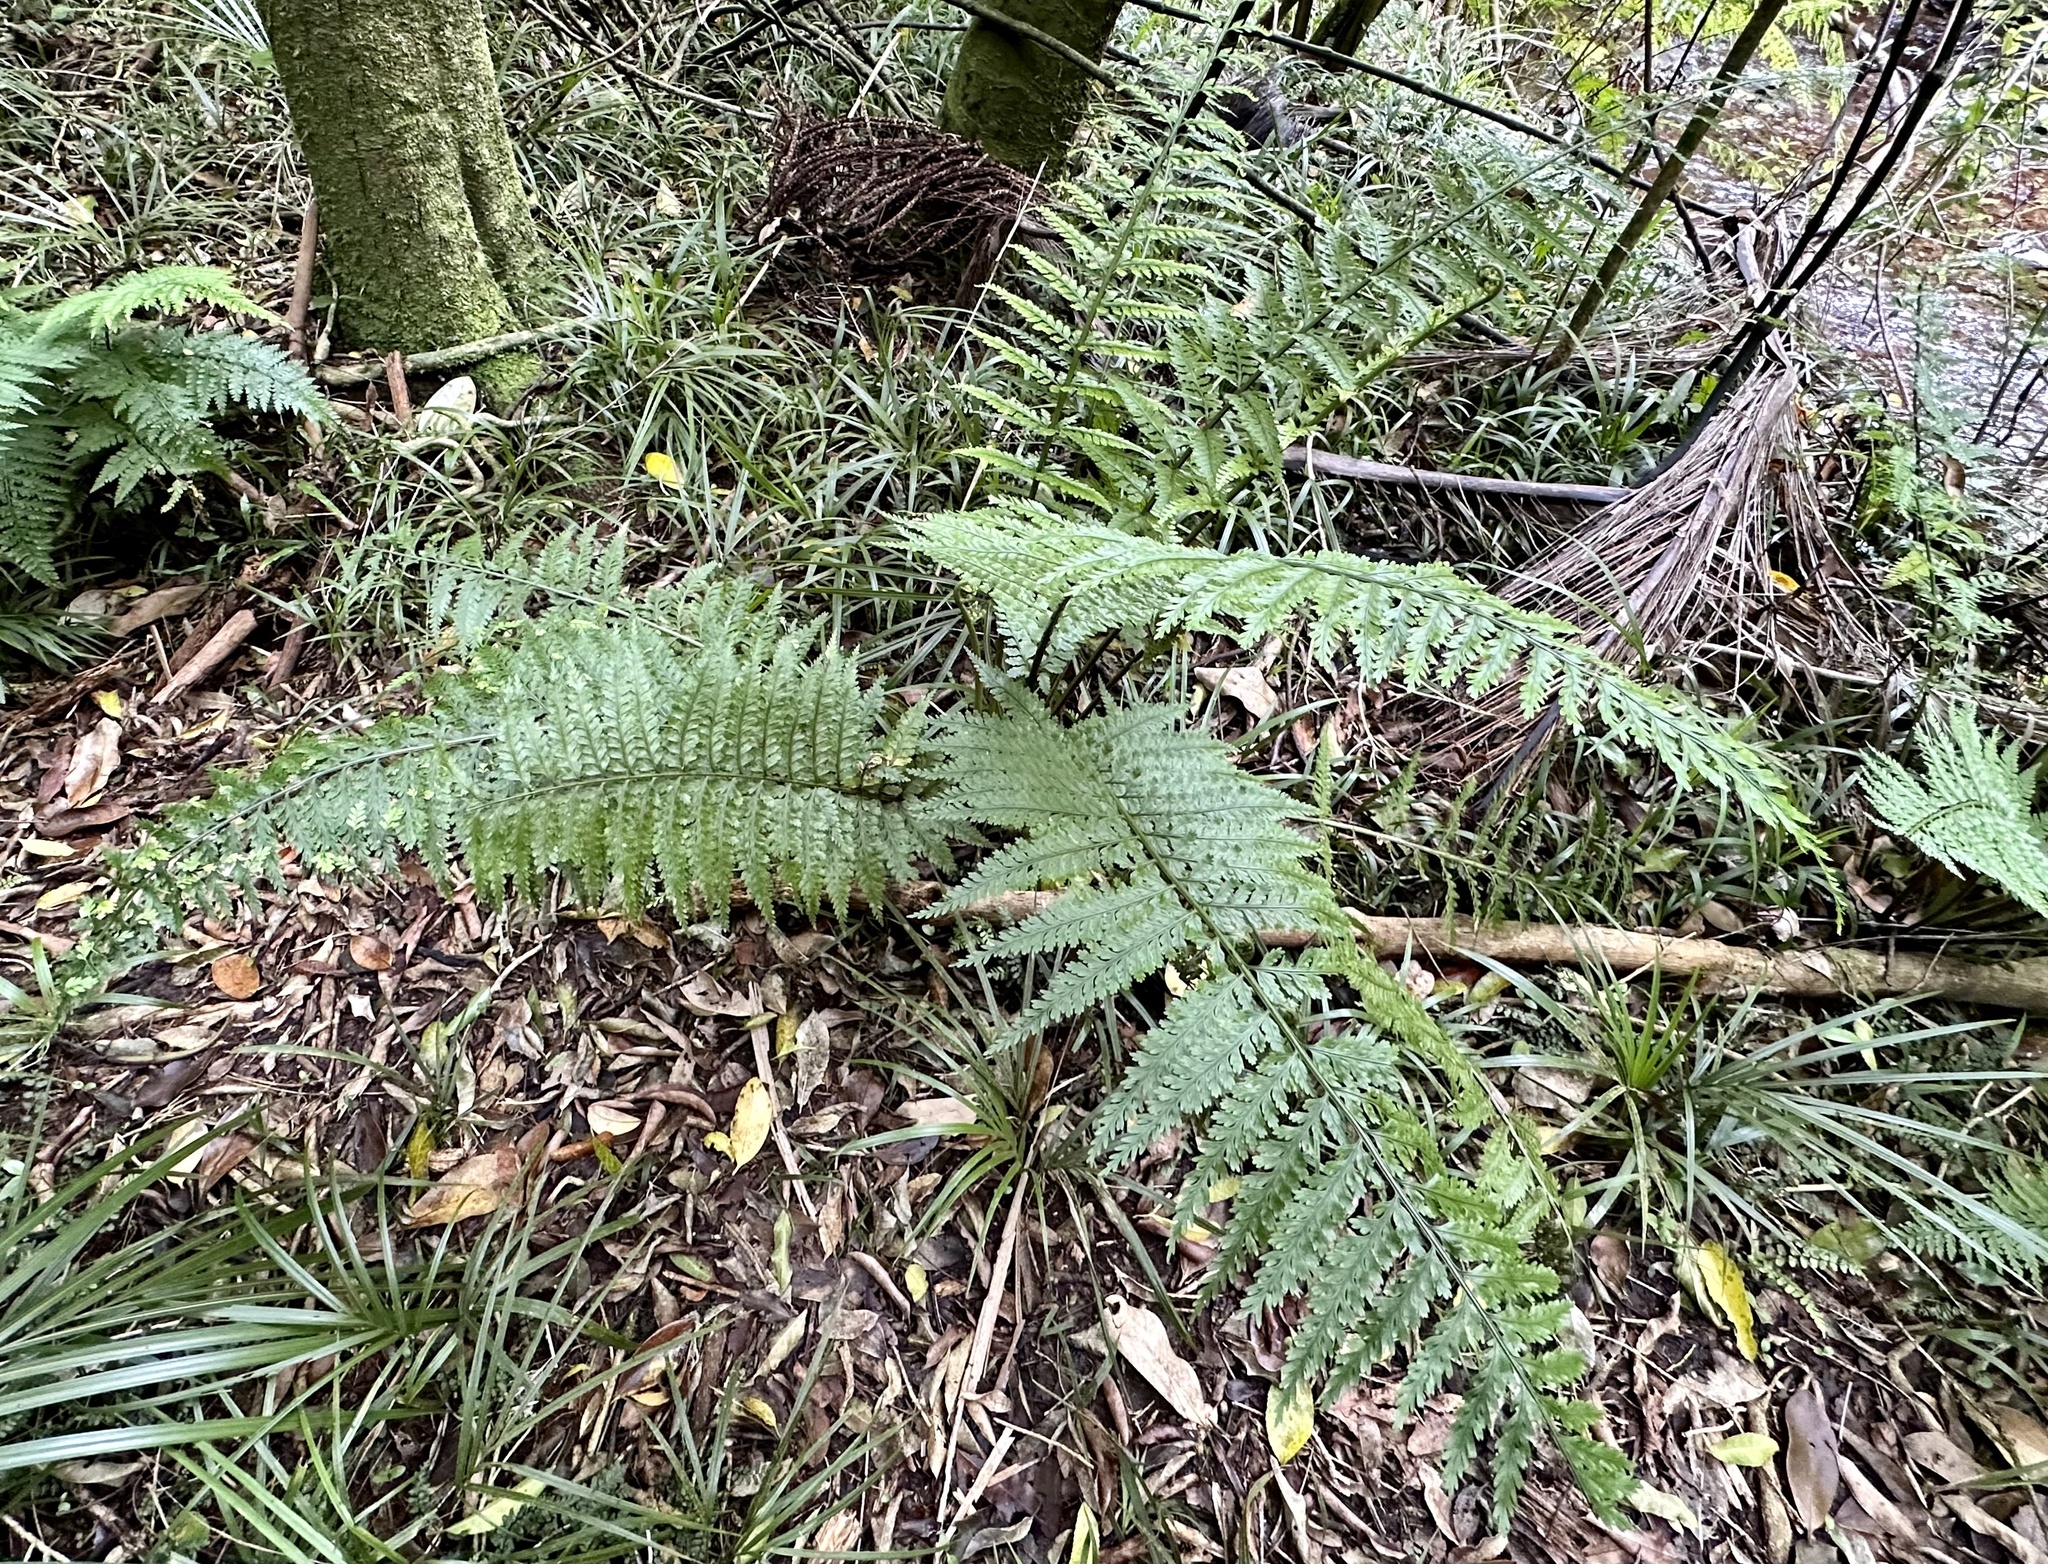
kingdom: Plantae
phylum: Tracheophyta
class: Polypodiopsida
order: Polypodiales
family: Aspleniaceae
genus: Asplenium
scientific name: Asplenium bulbiferum
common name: Mother fern
